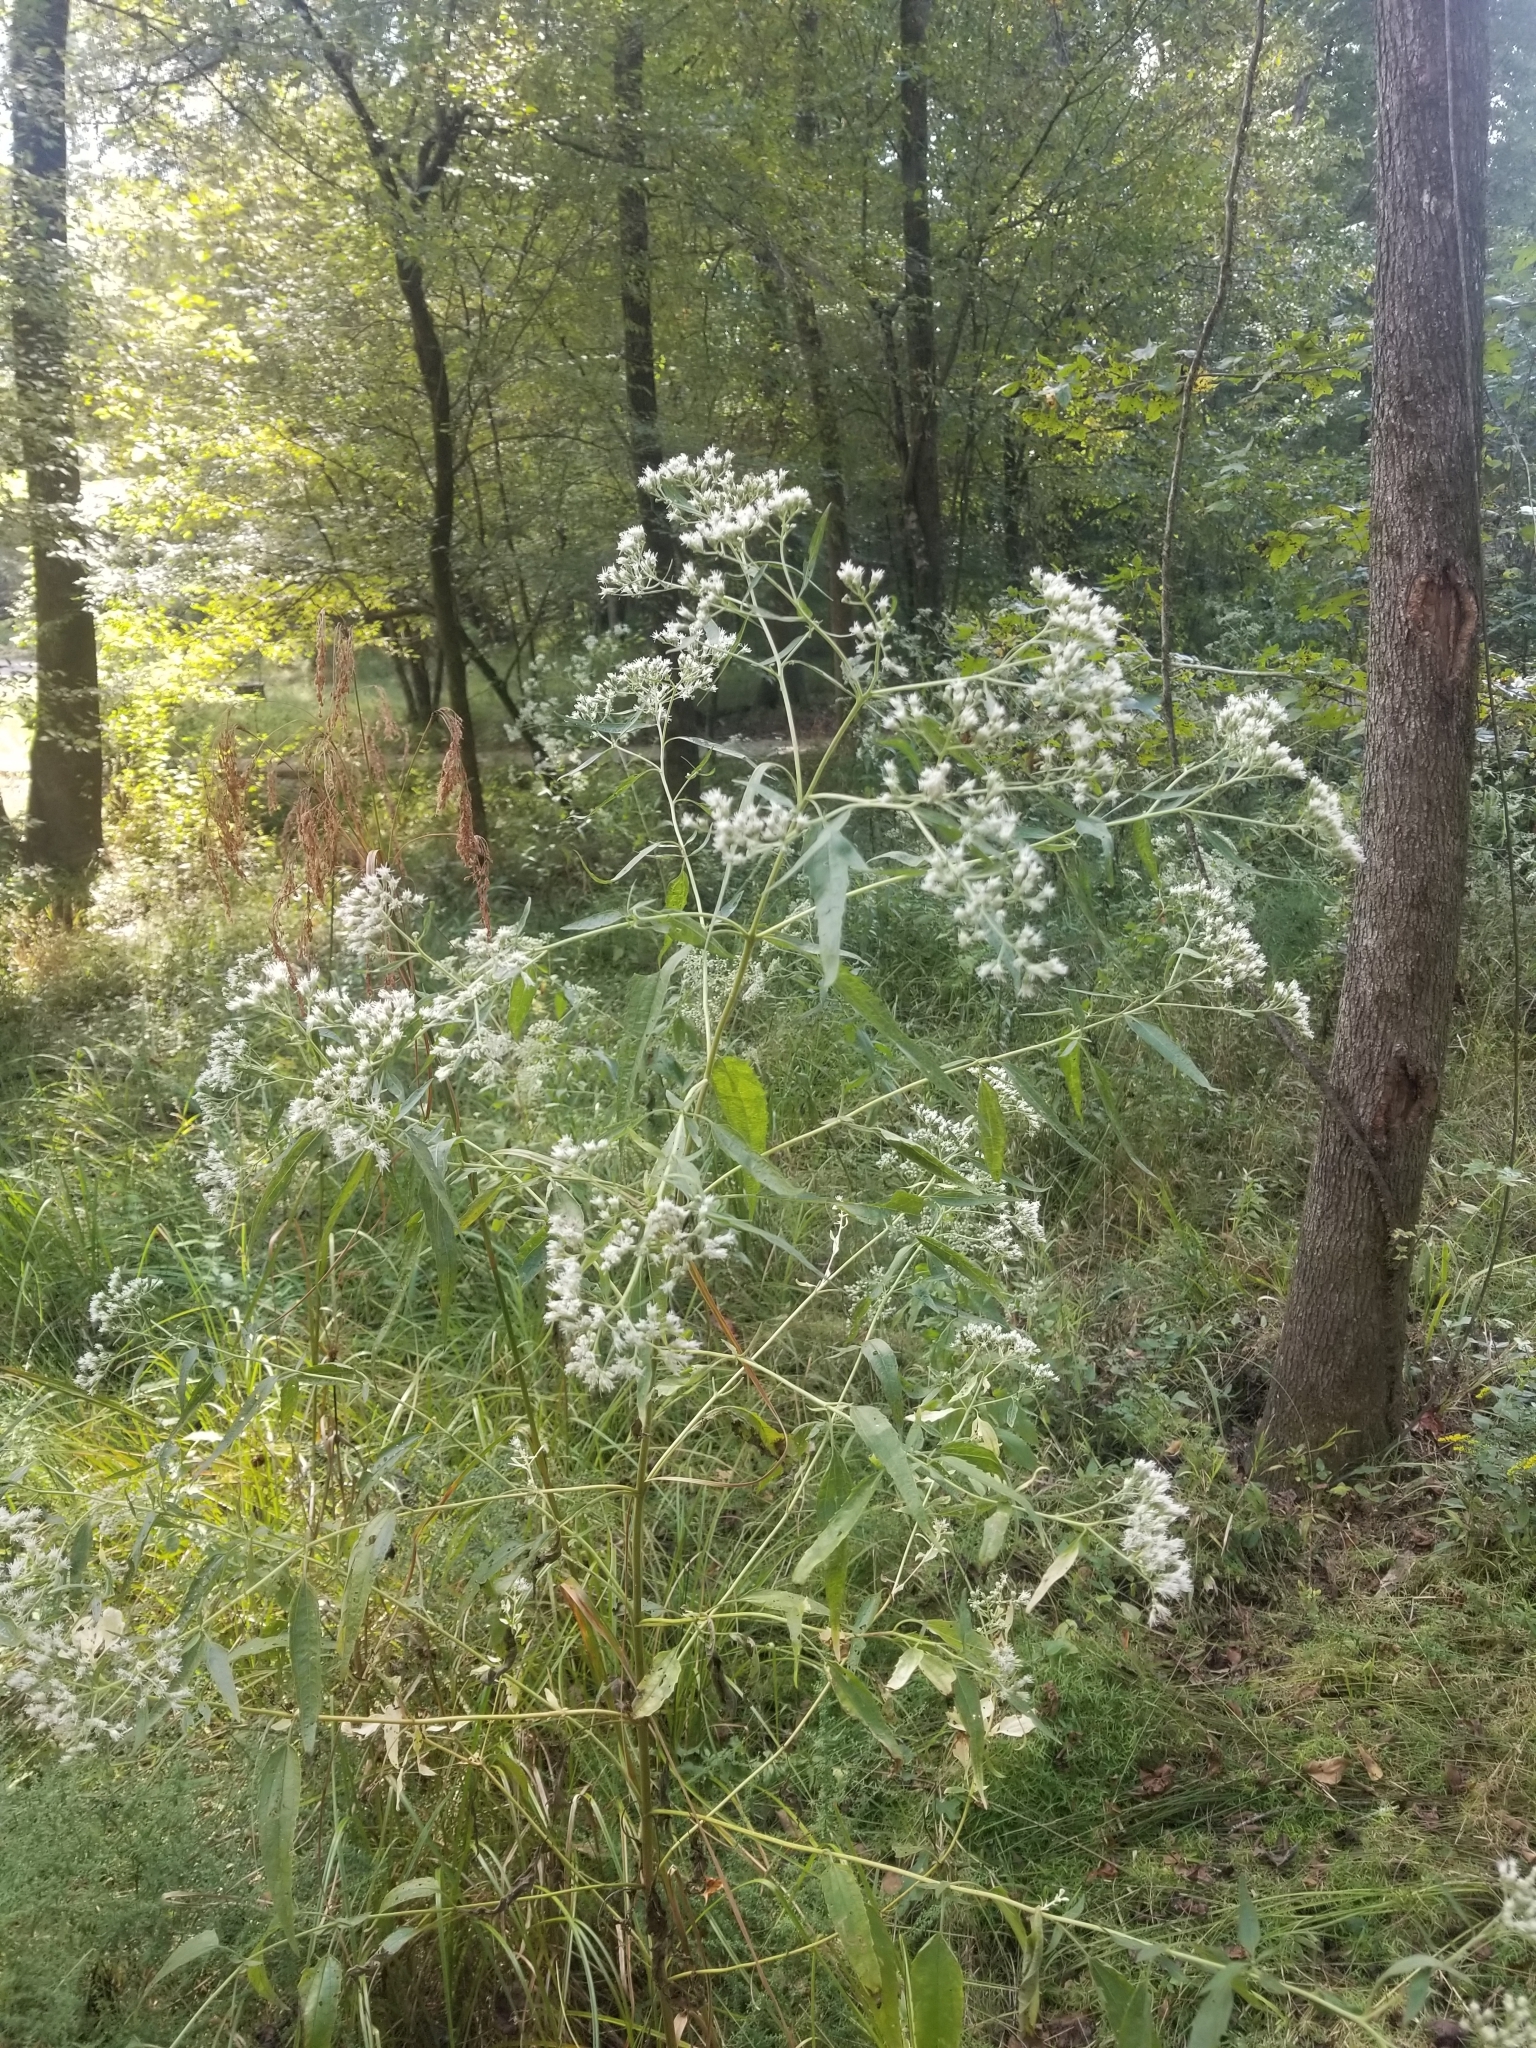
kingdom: Plantae
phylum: Tracheophyta
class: Magnoliopsida
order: Asterales
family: Asteraceae
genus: Eupatorium
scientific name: Eupatorium serotinum
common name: Late boneset
